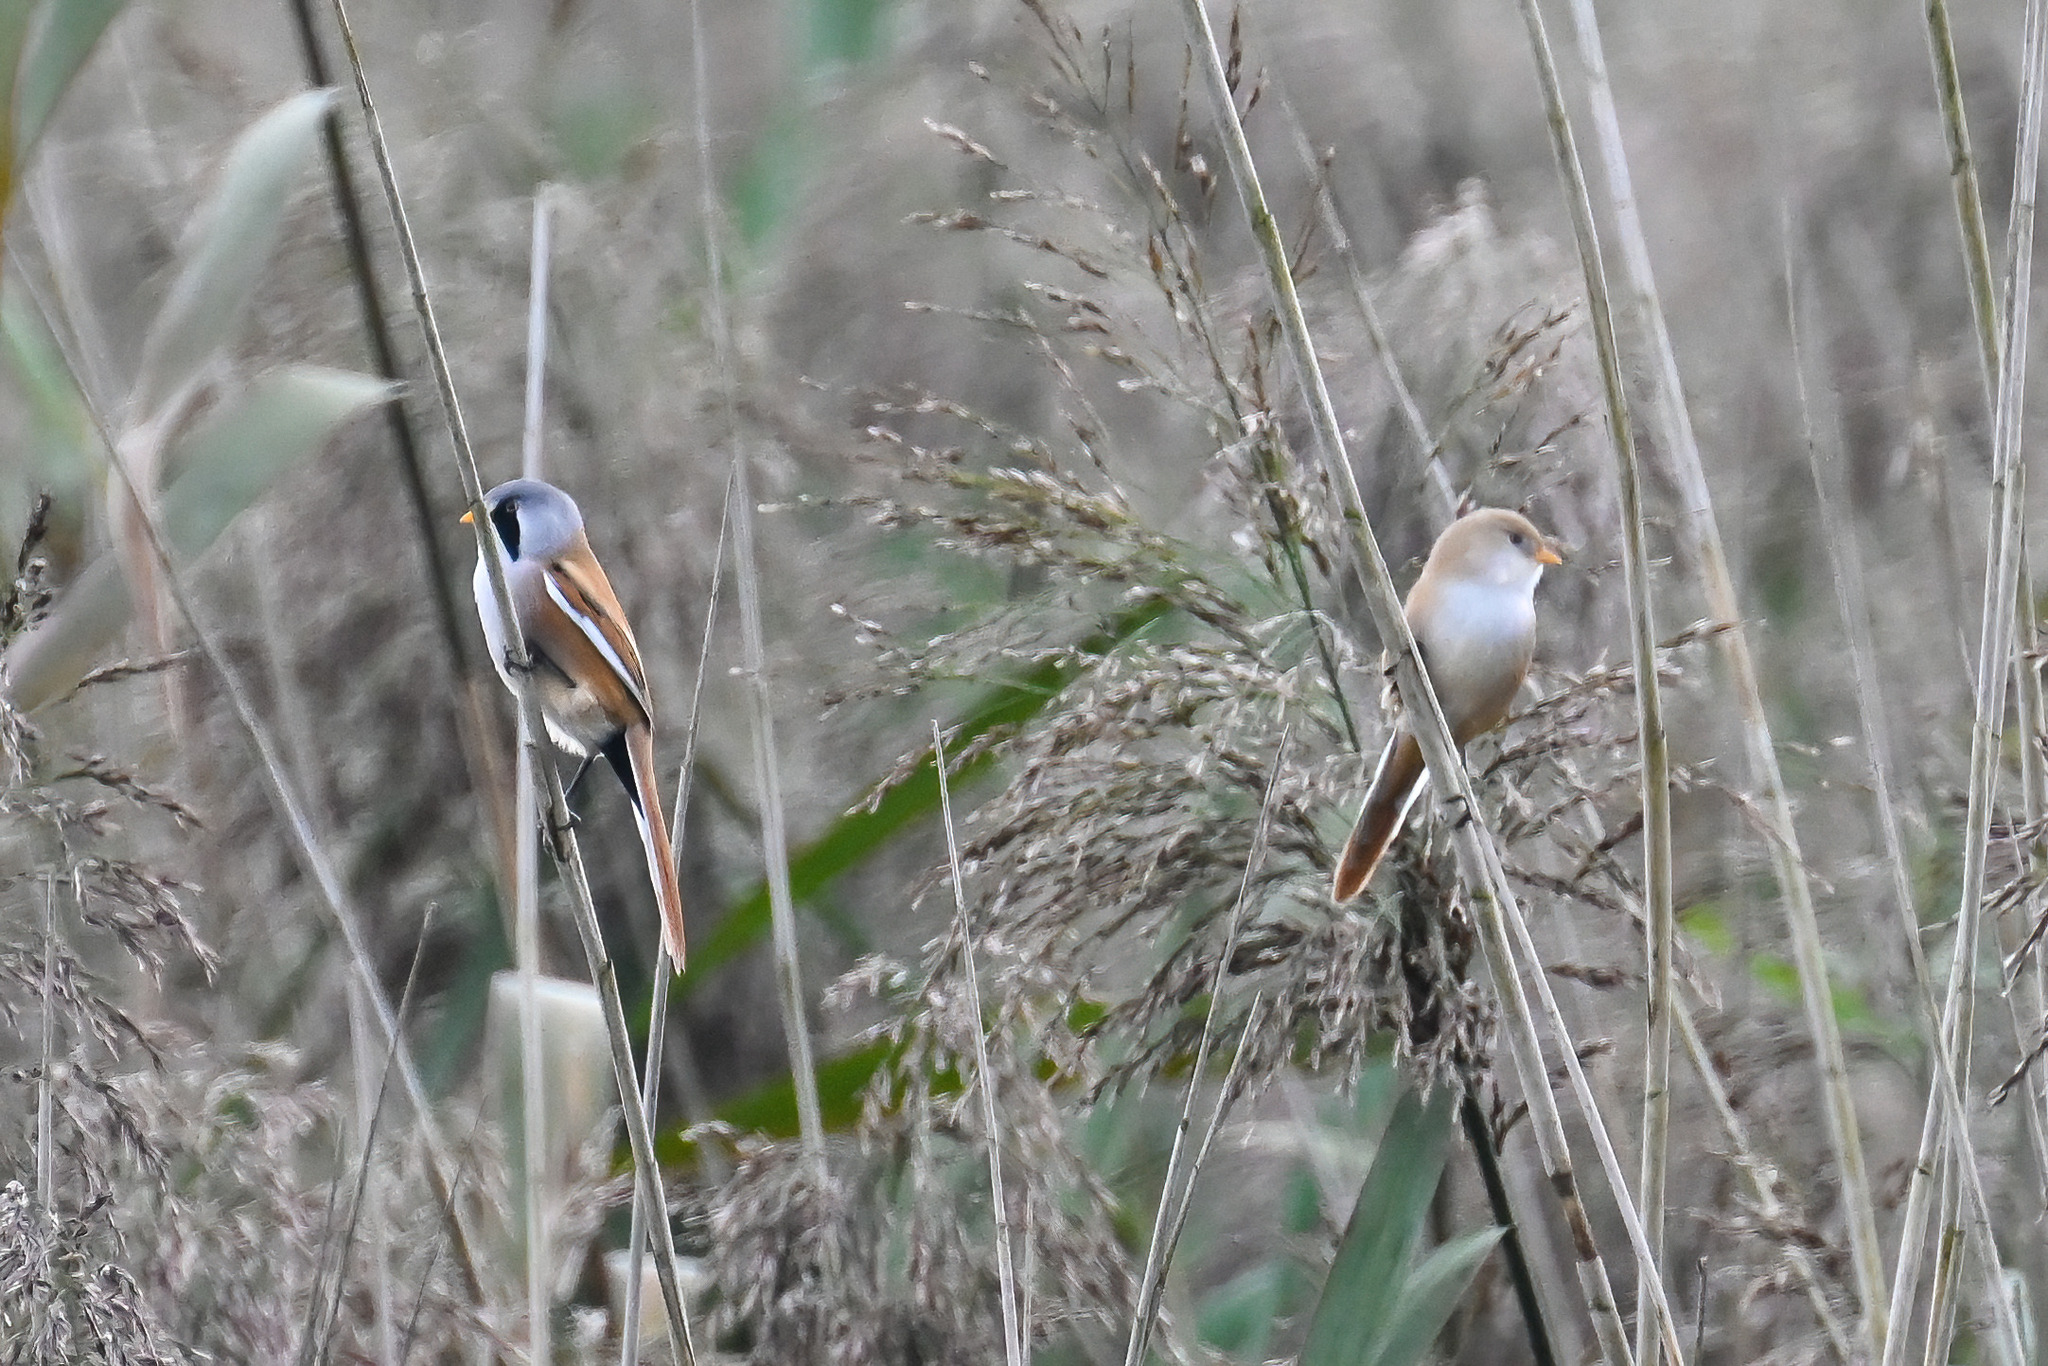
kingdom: Animalia
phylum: Chordata
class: Aves
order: Passeriformes
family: Panuridae
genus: Panurus
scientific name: Panurus biarmicus
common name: Bearded reedling
